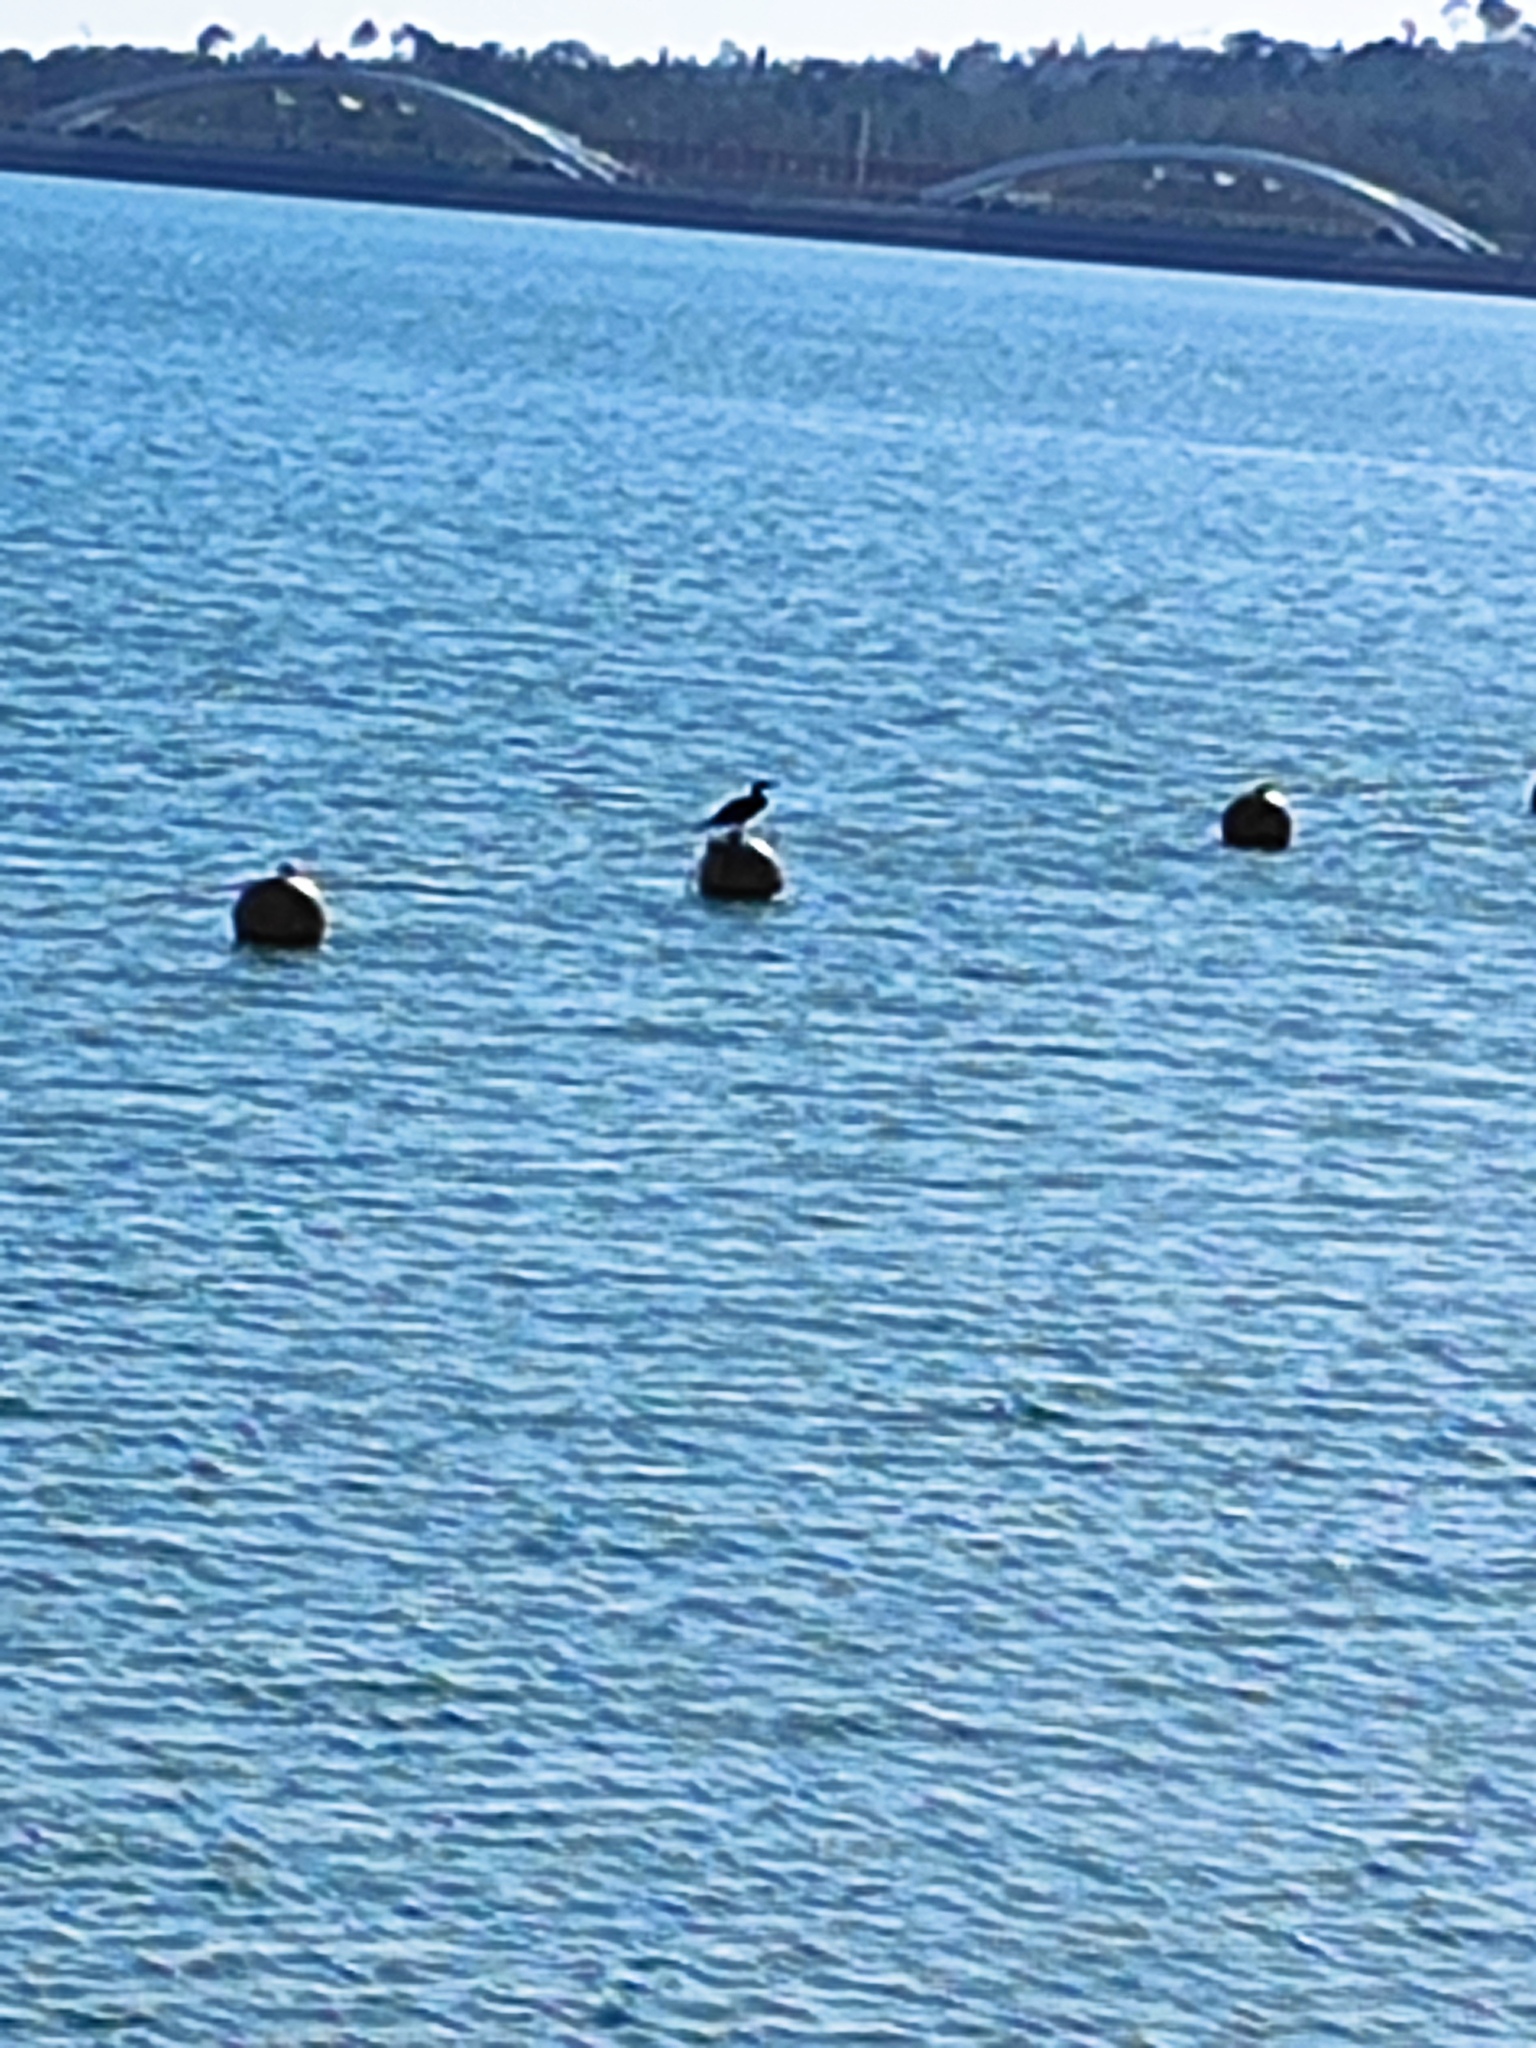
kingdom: Animalia
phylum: Chordata
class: Aves
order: Suliformes
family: Phalacrocoracidae
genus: Phalacrocorax
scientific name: Phalacrocorax carbo
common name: Great cormorant
